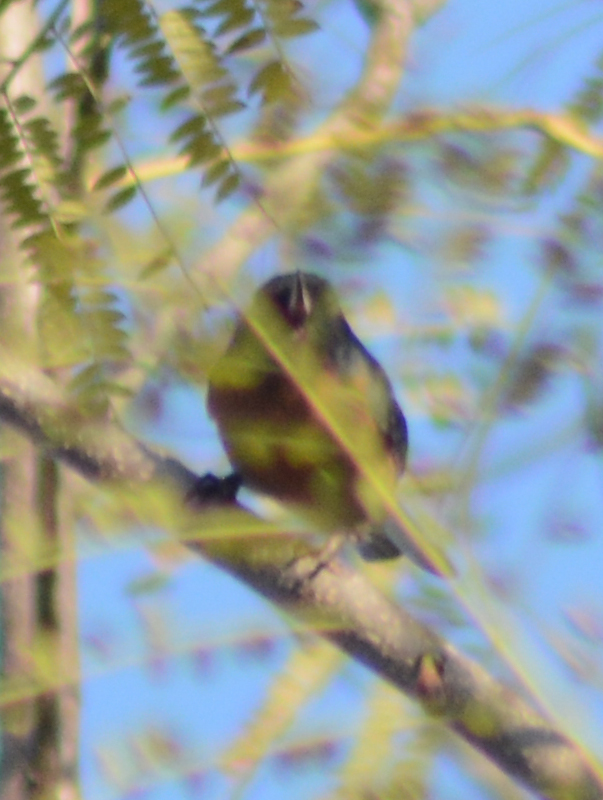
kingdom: Animalia
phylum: Chordata
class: Aves
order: Passeriformes
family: Thraupidae
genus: Diglossa
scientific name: Diglossa baritula
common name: Cinnamon-bellied flowerpiercer
